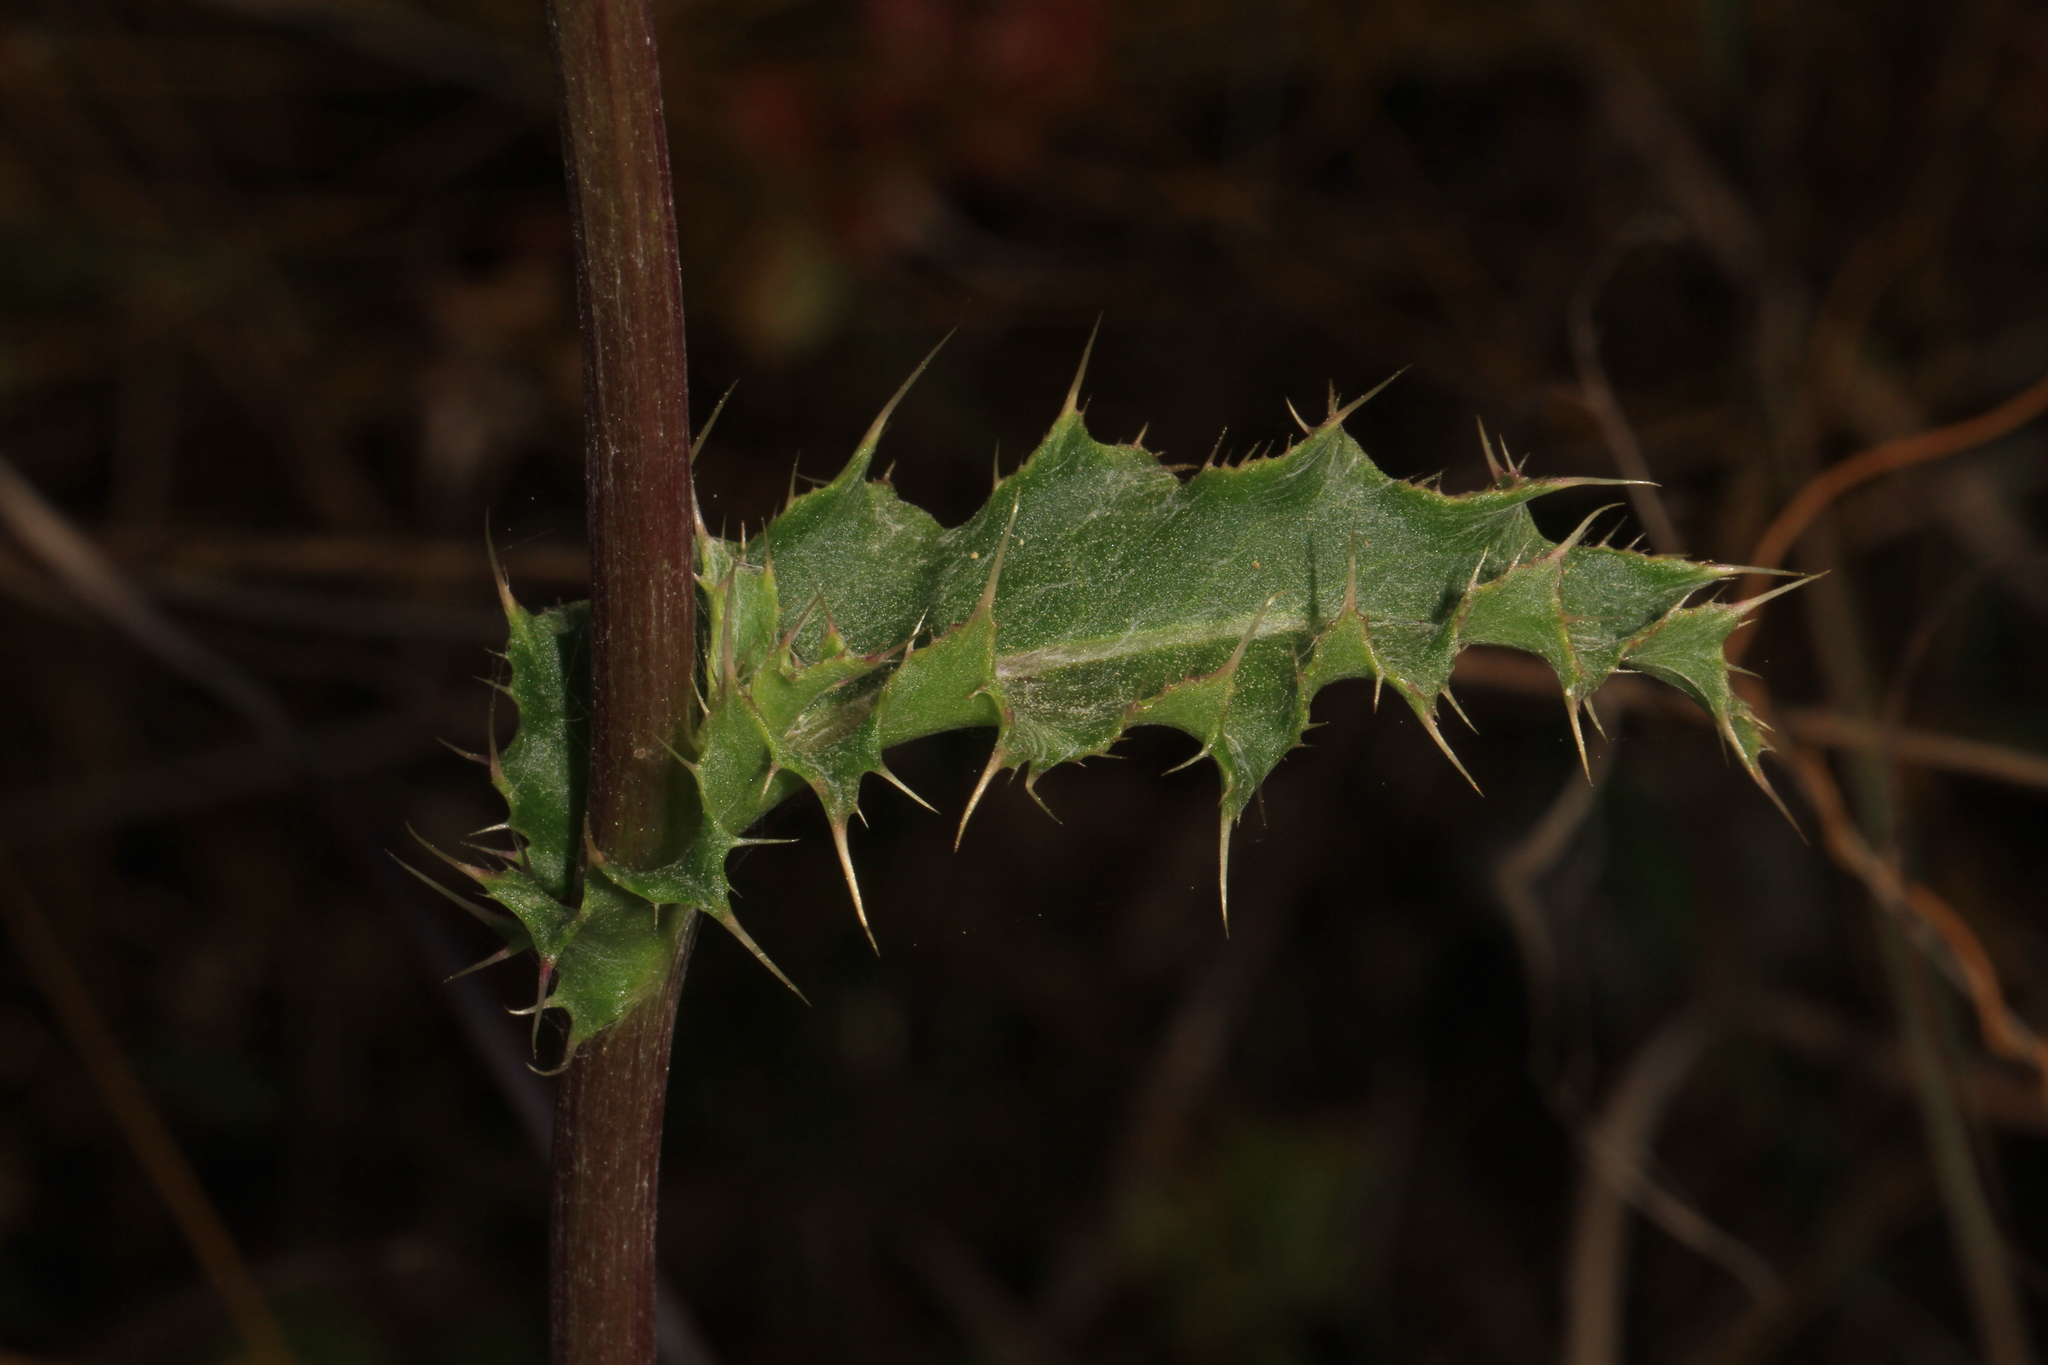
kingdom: Plantae
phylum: Tracheophyta
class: Magnoliopsida
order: Asterales
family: Asteraceae
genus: Cirsium
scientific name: Cirsium horridulum
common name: Bristly thistle
